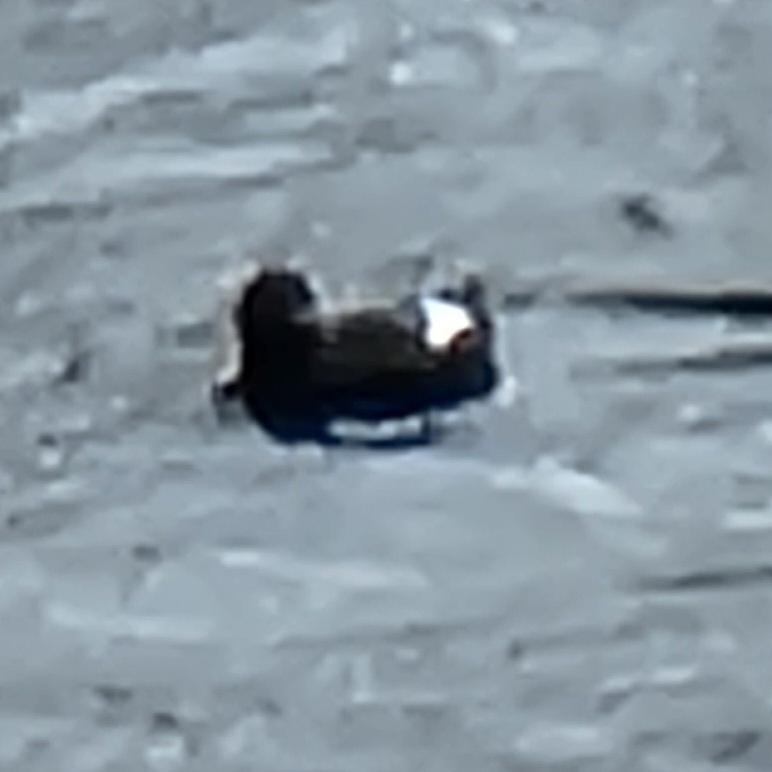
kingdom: Animalia
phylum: Chordata
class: Aves
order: Charadriiformes
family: Alcidae
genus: Cepphus
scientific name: Cepphus columba
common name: Pigeon guillemot
